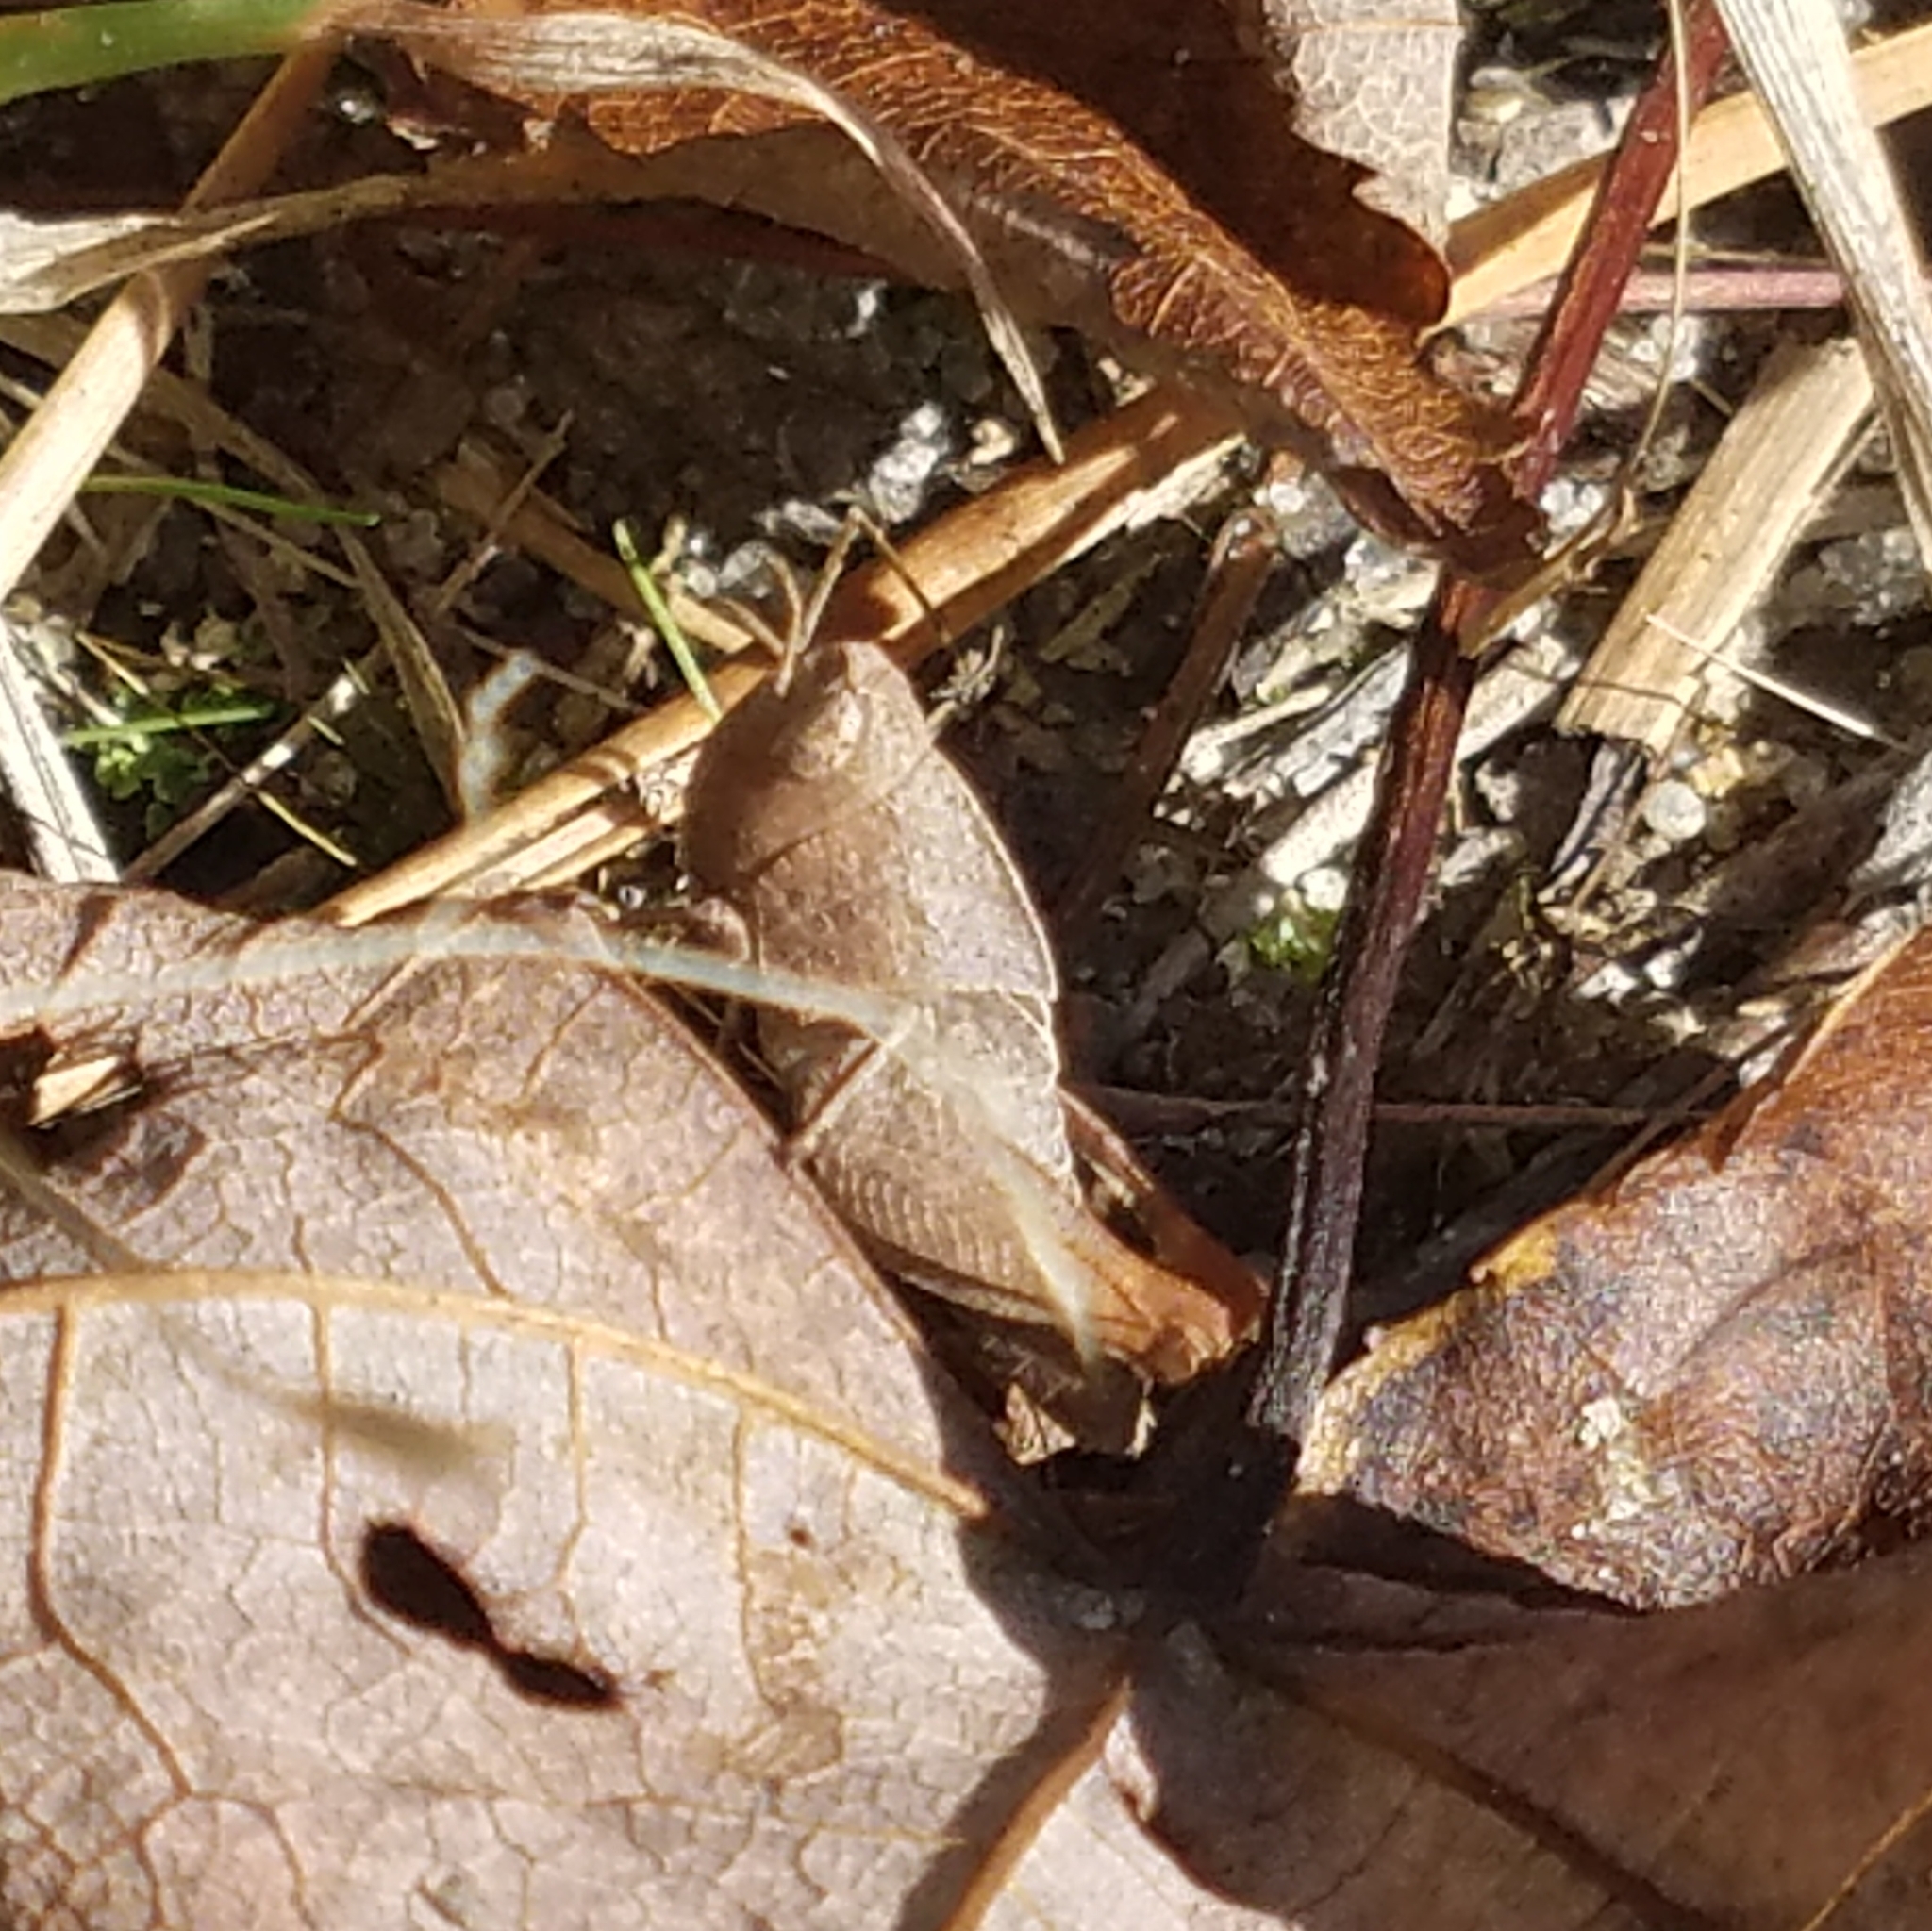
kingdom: Animalia
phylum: Arthropoda
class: Insecta
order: Orthoptera
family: Acrididae
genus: Arphia
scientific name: Arphia sulphurea
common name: Spring yellow-winged locust
